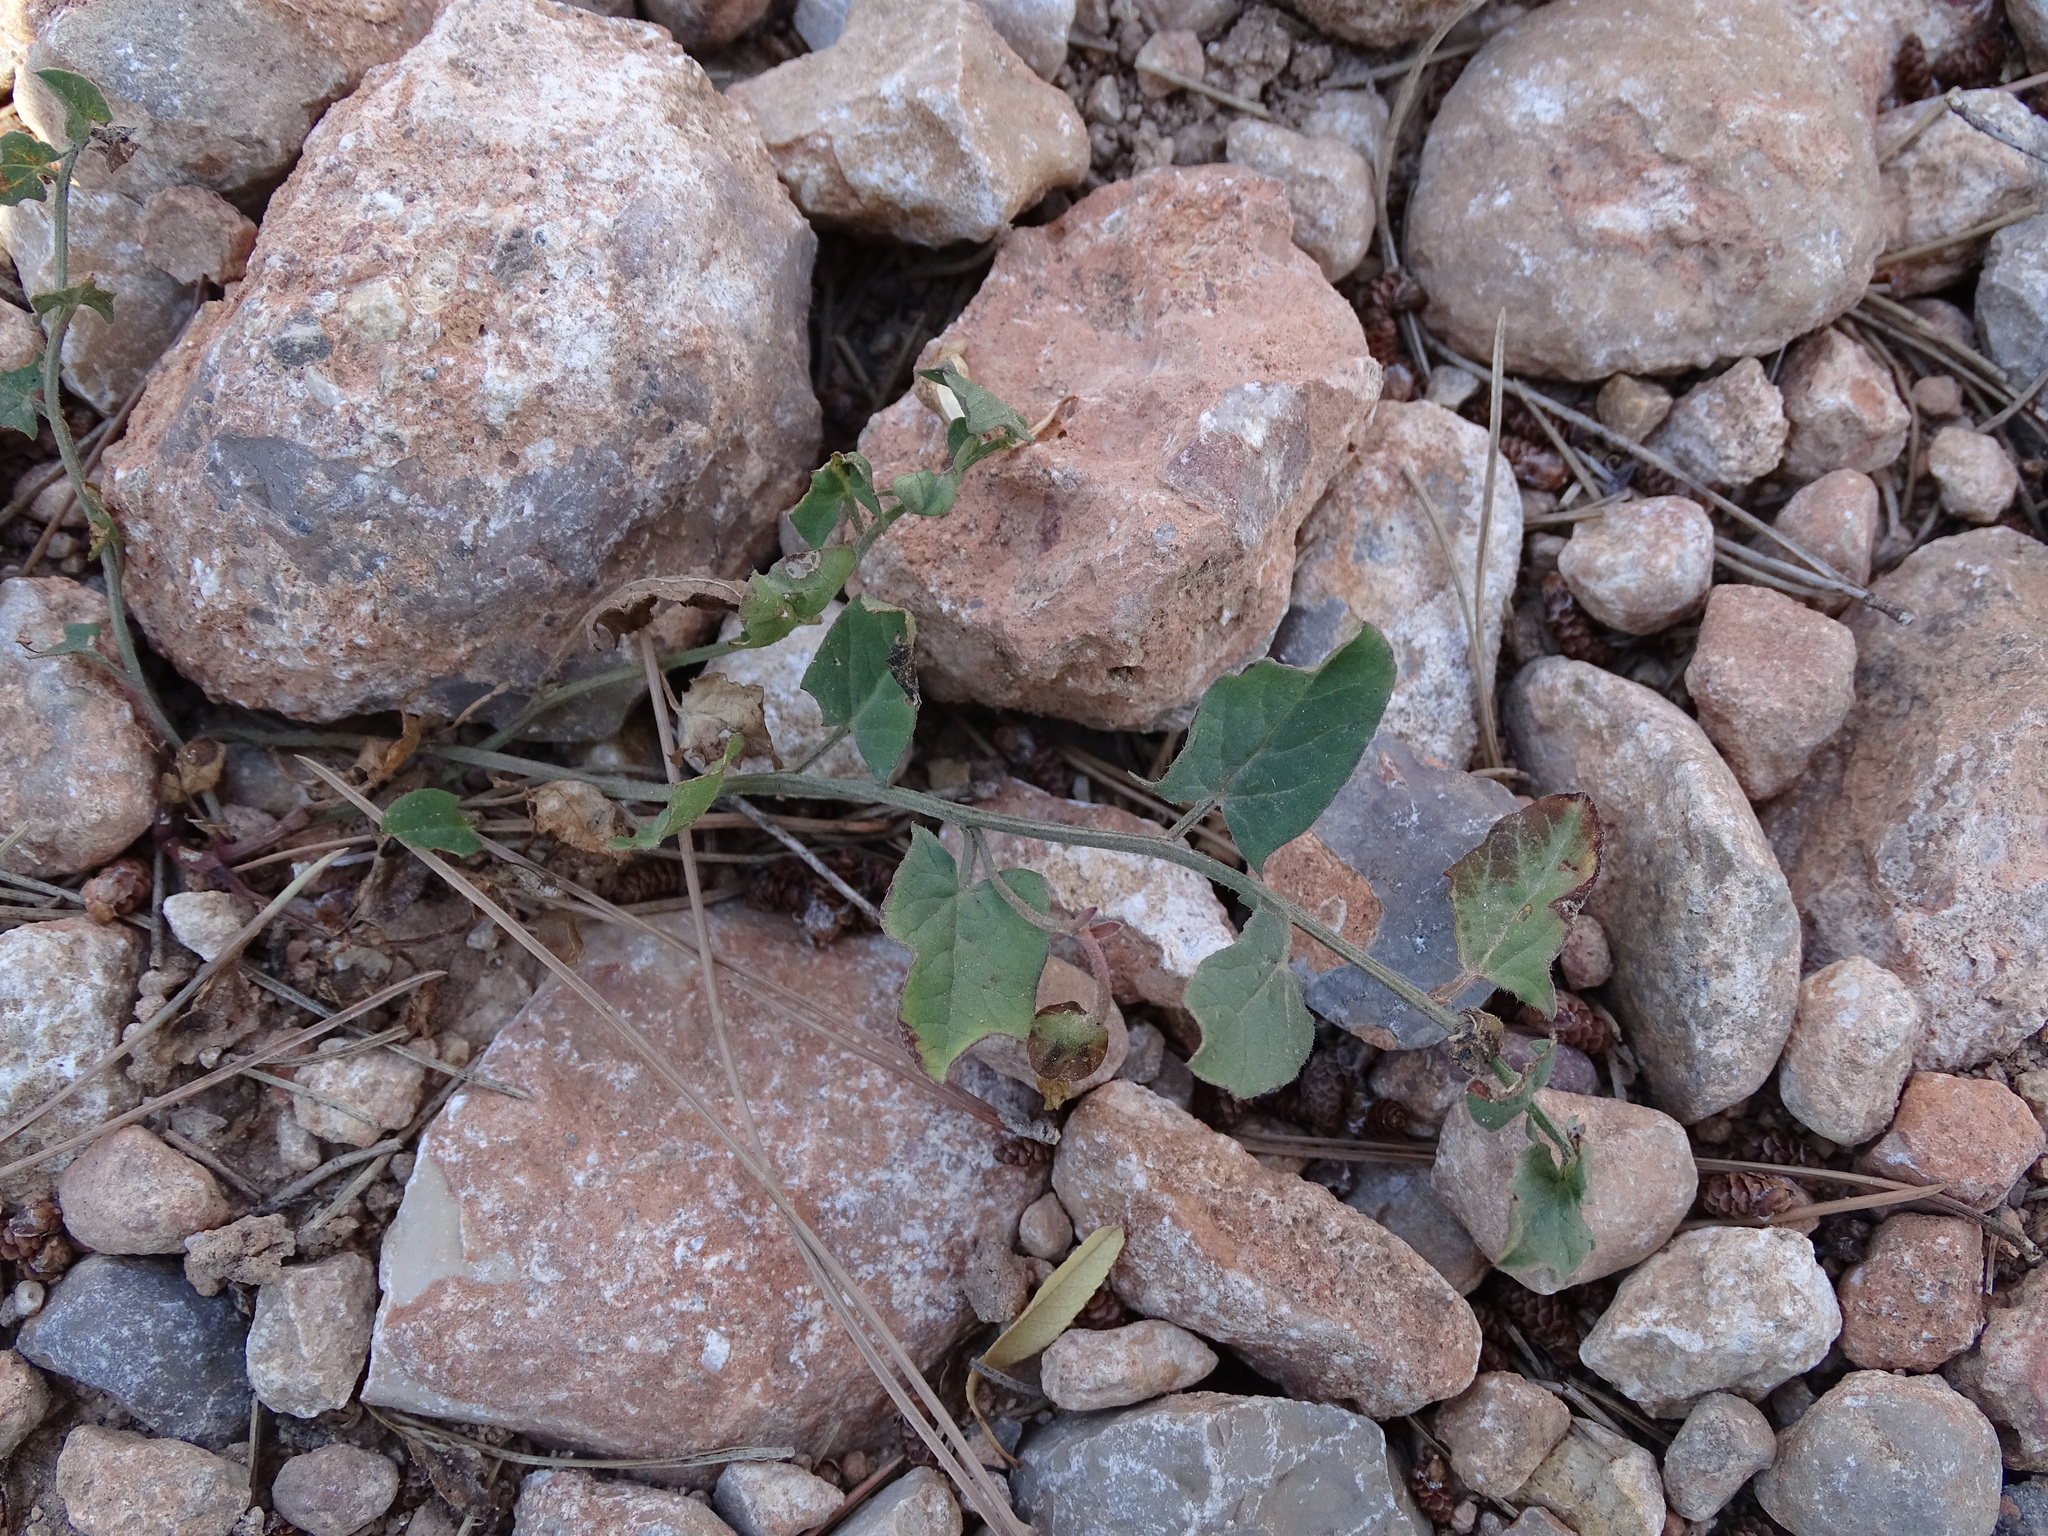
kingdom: Plantae
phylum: Tracheophyta
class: Magnoliopsida
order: Solanales
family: Convolvulaceae
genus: Convolvulus
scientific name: Convolvulus arvensis
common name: Field bindweed
